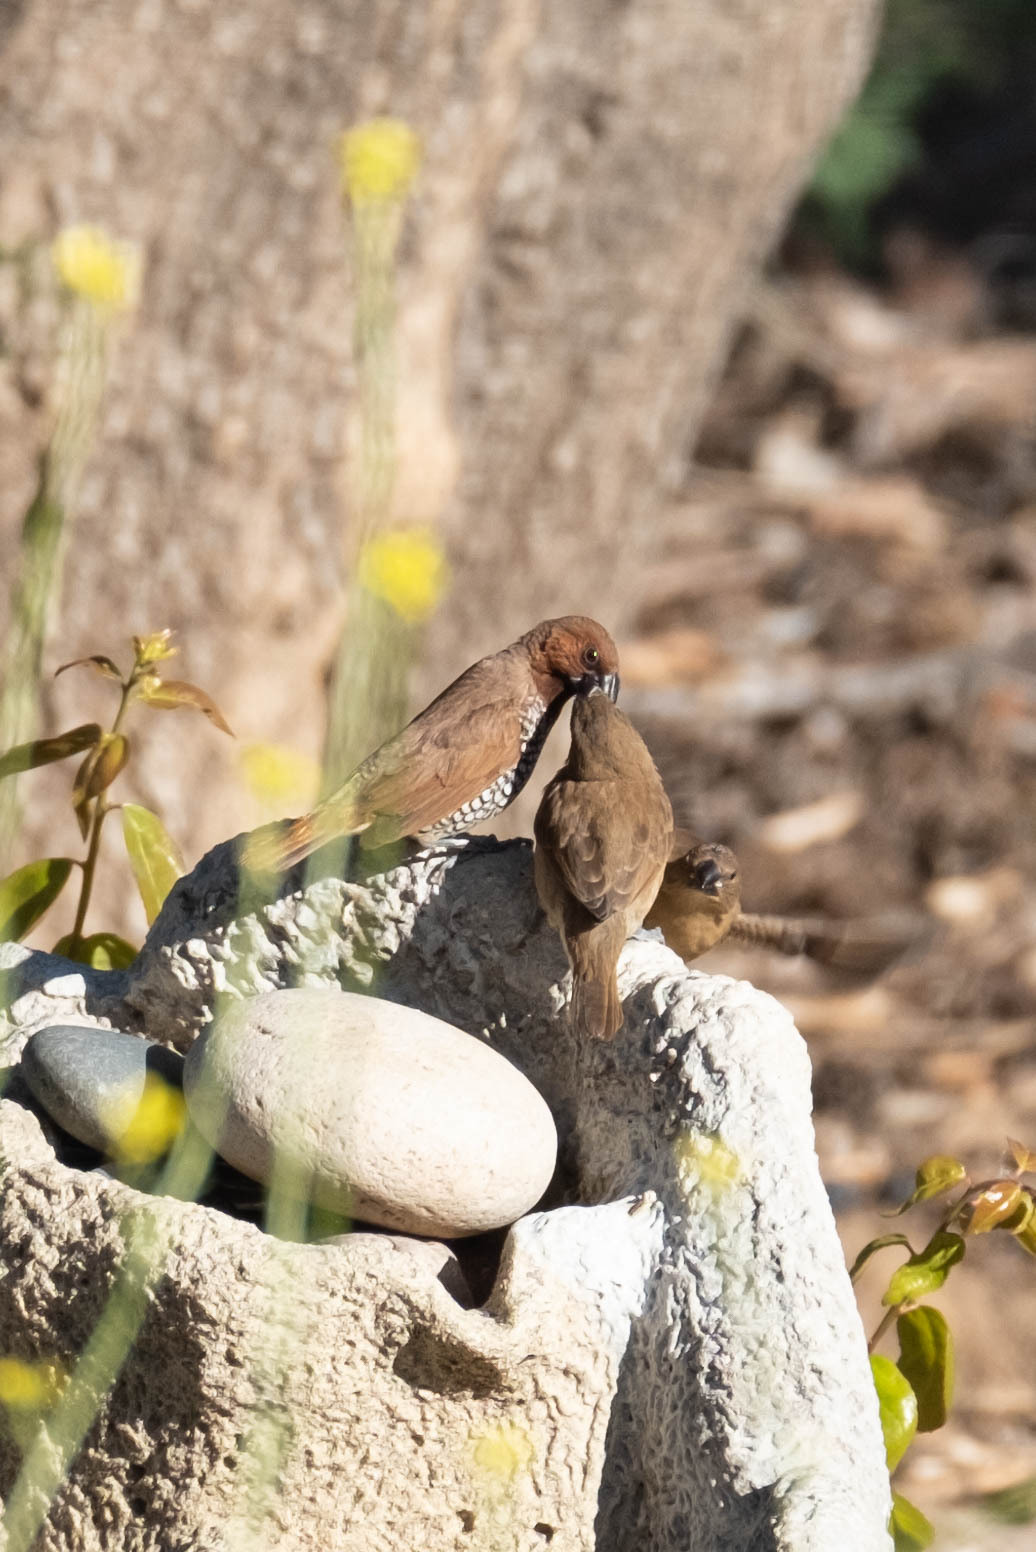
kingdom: Animalia
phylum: Chordata
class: Aves
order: Passeriformes
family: Estrildidae
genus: Lonchura
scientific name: Lonchura punctulata
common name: Scaly-breasted munia
